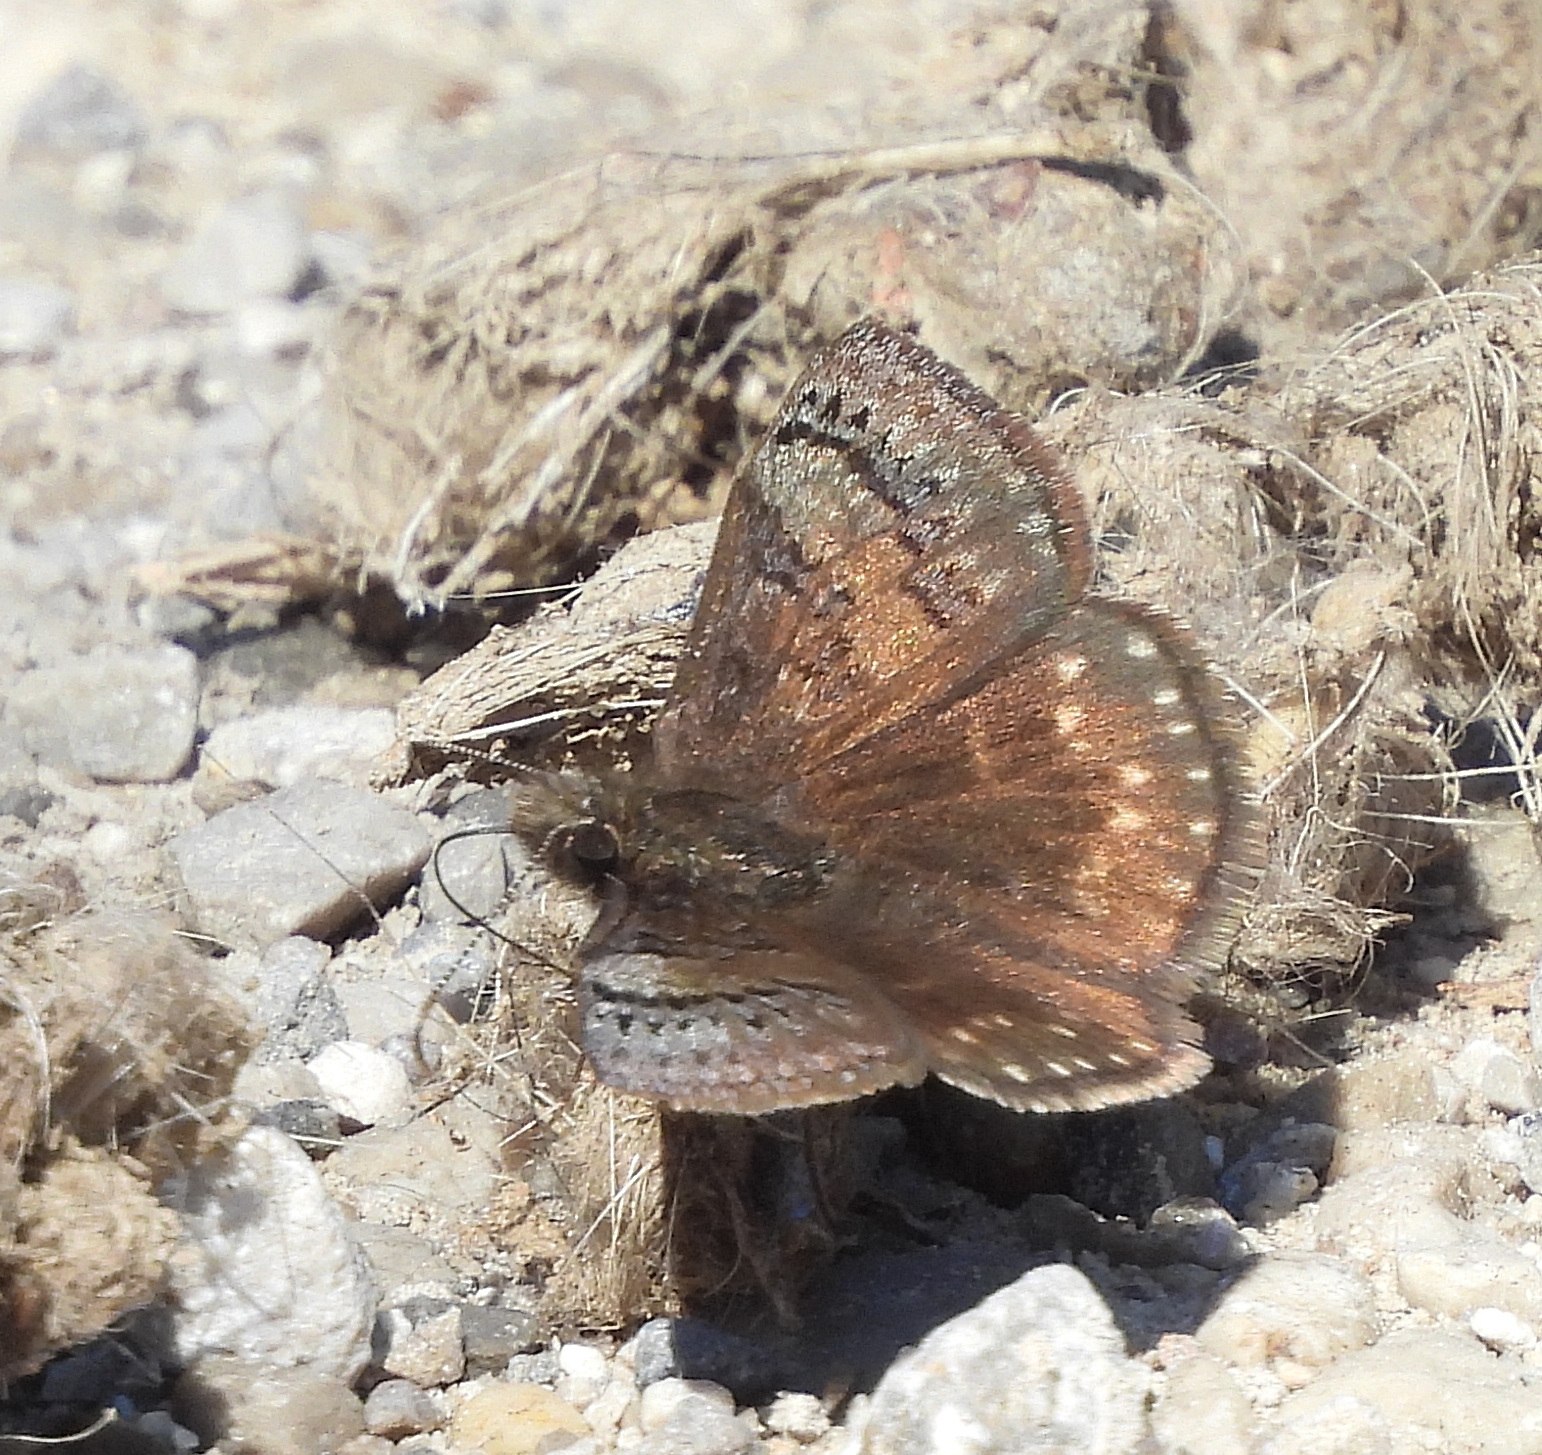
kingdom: Animalia
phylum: Arthropoda
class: Insecta
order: Lepidoptera
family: Hesperiidae
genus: Erynnis
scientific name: Erynnis brizo
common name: Sleepy duskywing
